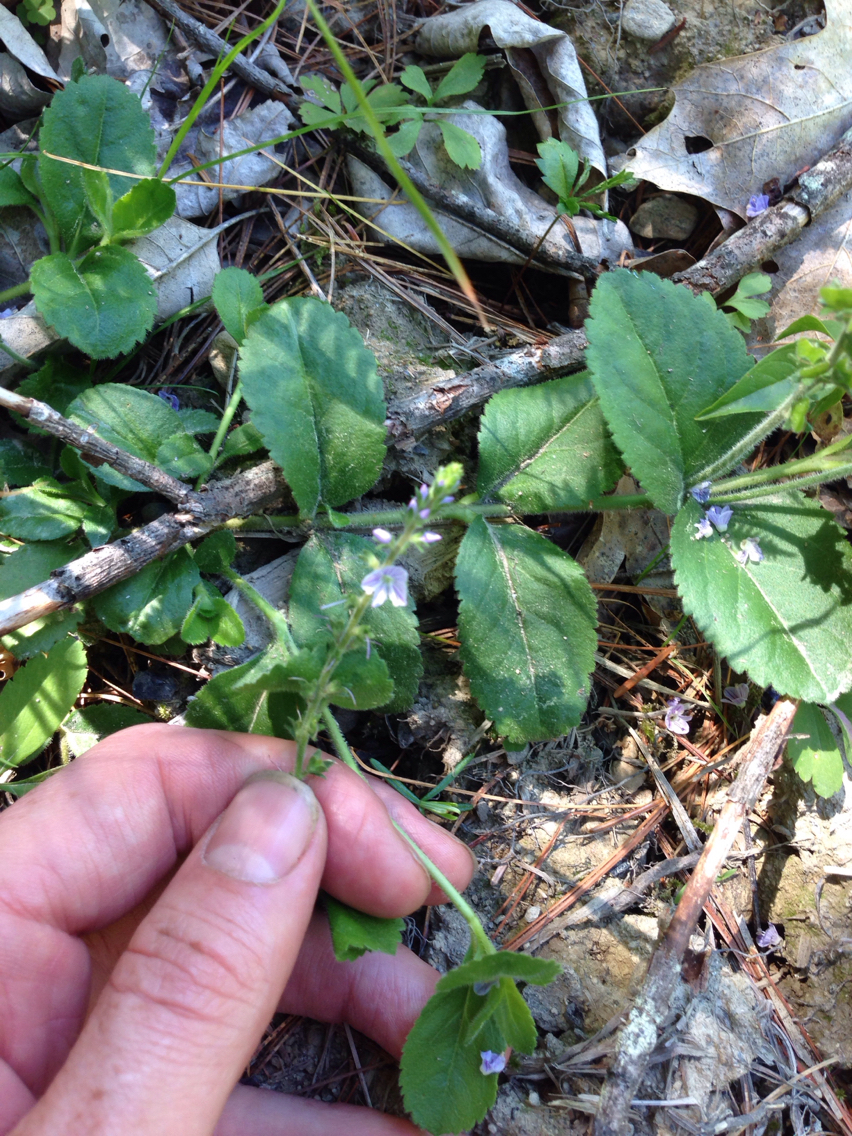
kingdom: Plantae
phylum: Tracheophyta
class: Magnoliopsida
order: Lamiales
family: Plantaginaceae
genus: Veronica
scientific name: Veronica officinalis
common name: Common speedwell
